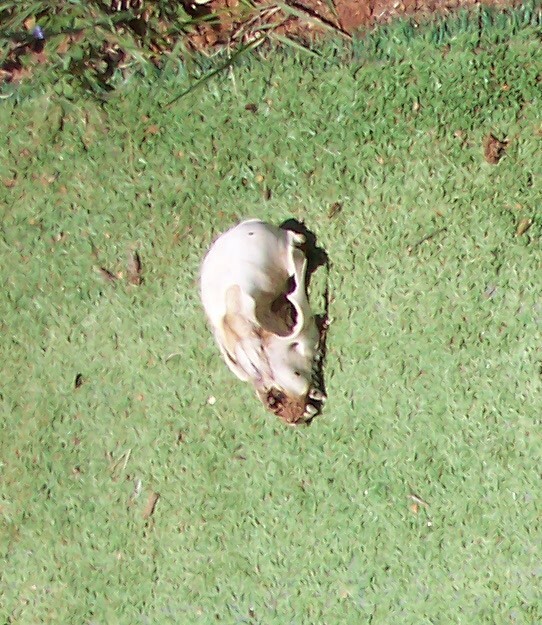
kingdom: Animalia
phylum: Chordata
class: Mammalia
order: Carnivora
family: Procyonidae
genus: Procyon
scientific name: Procyon lotor
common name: Raccoon
